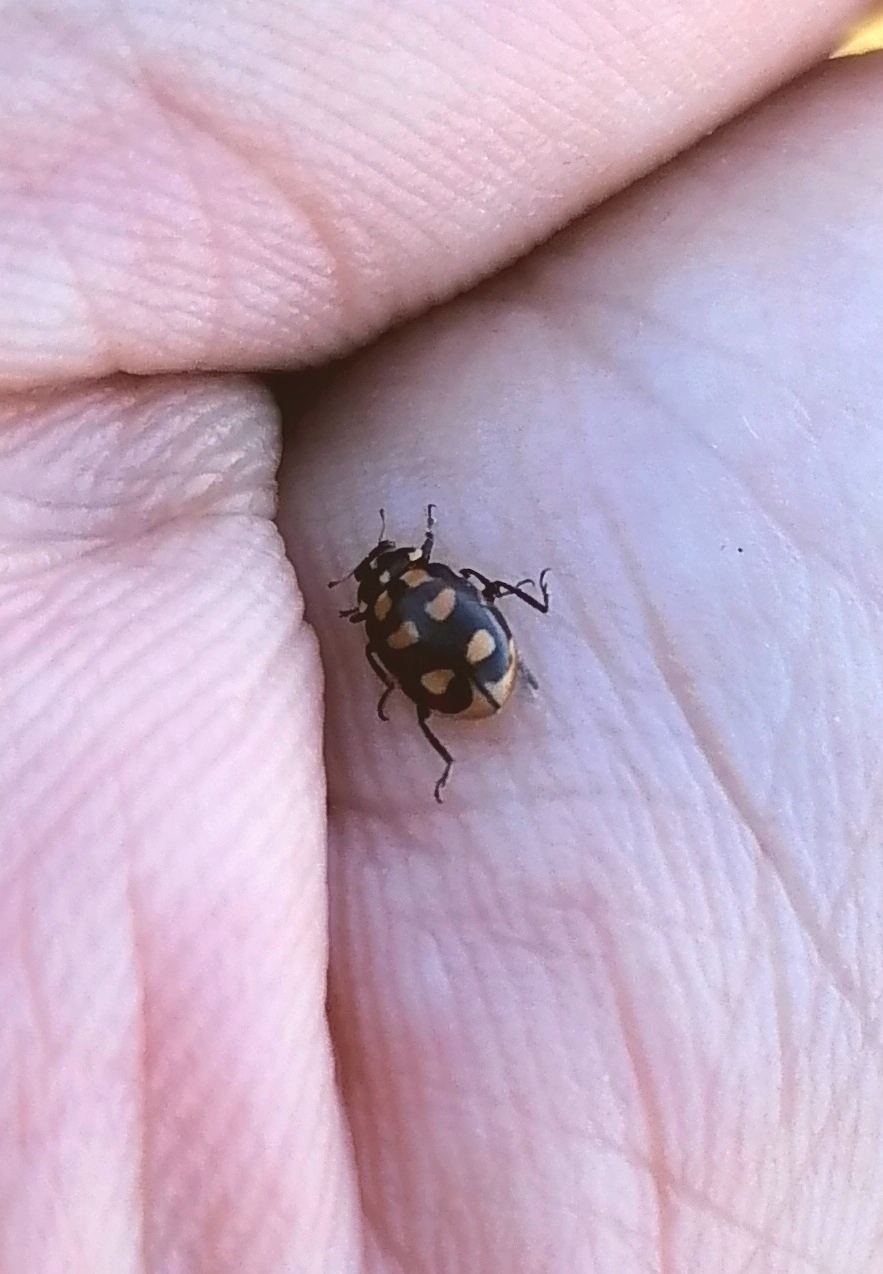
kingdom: Animalia
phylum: Arthropoda
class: Insecta
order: Coleoptera
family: Coccinellidae
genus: Hippodamia
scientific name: Hippodamia arctica
